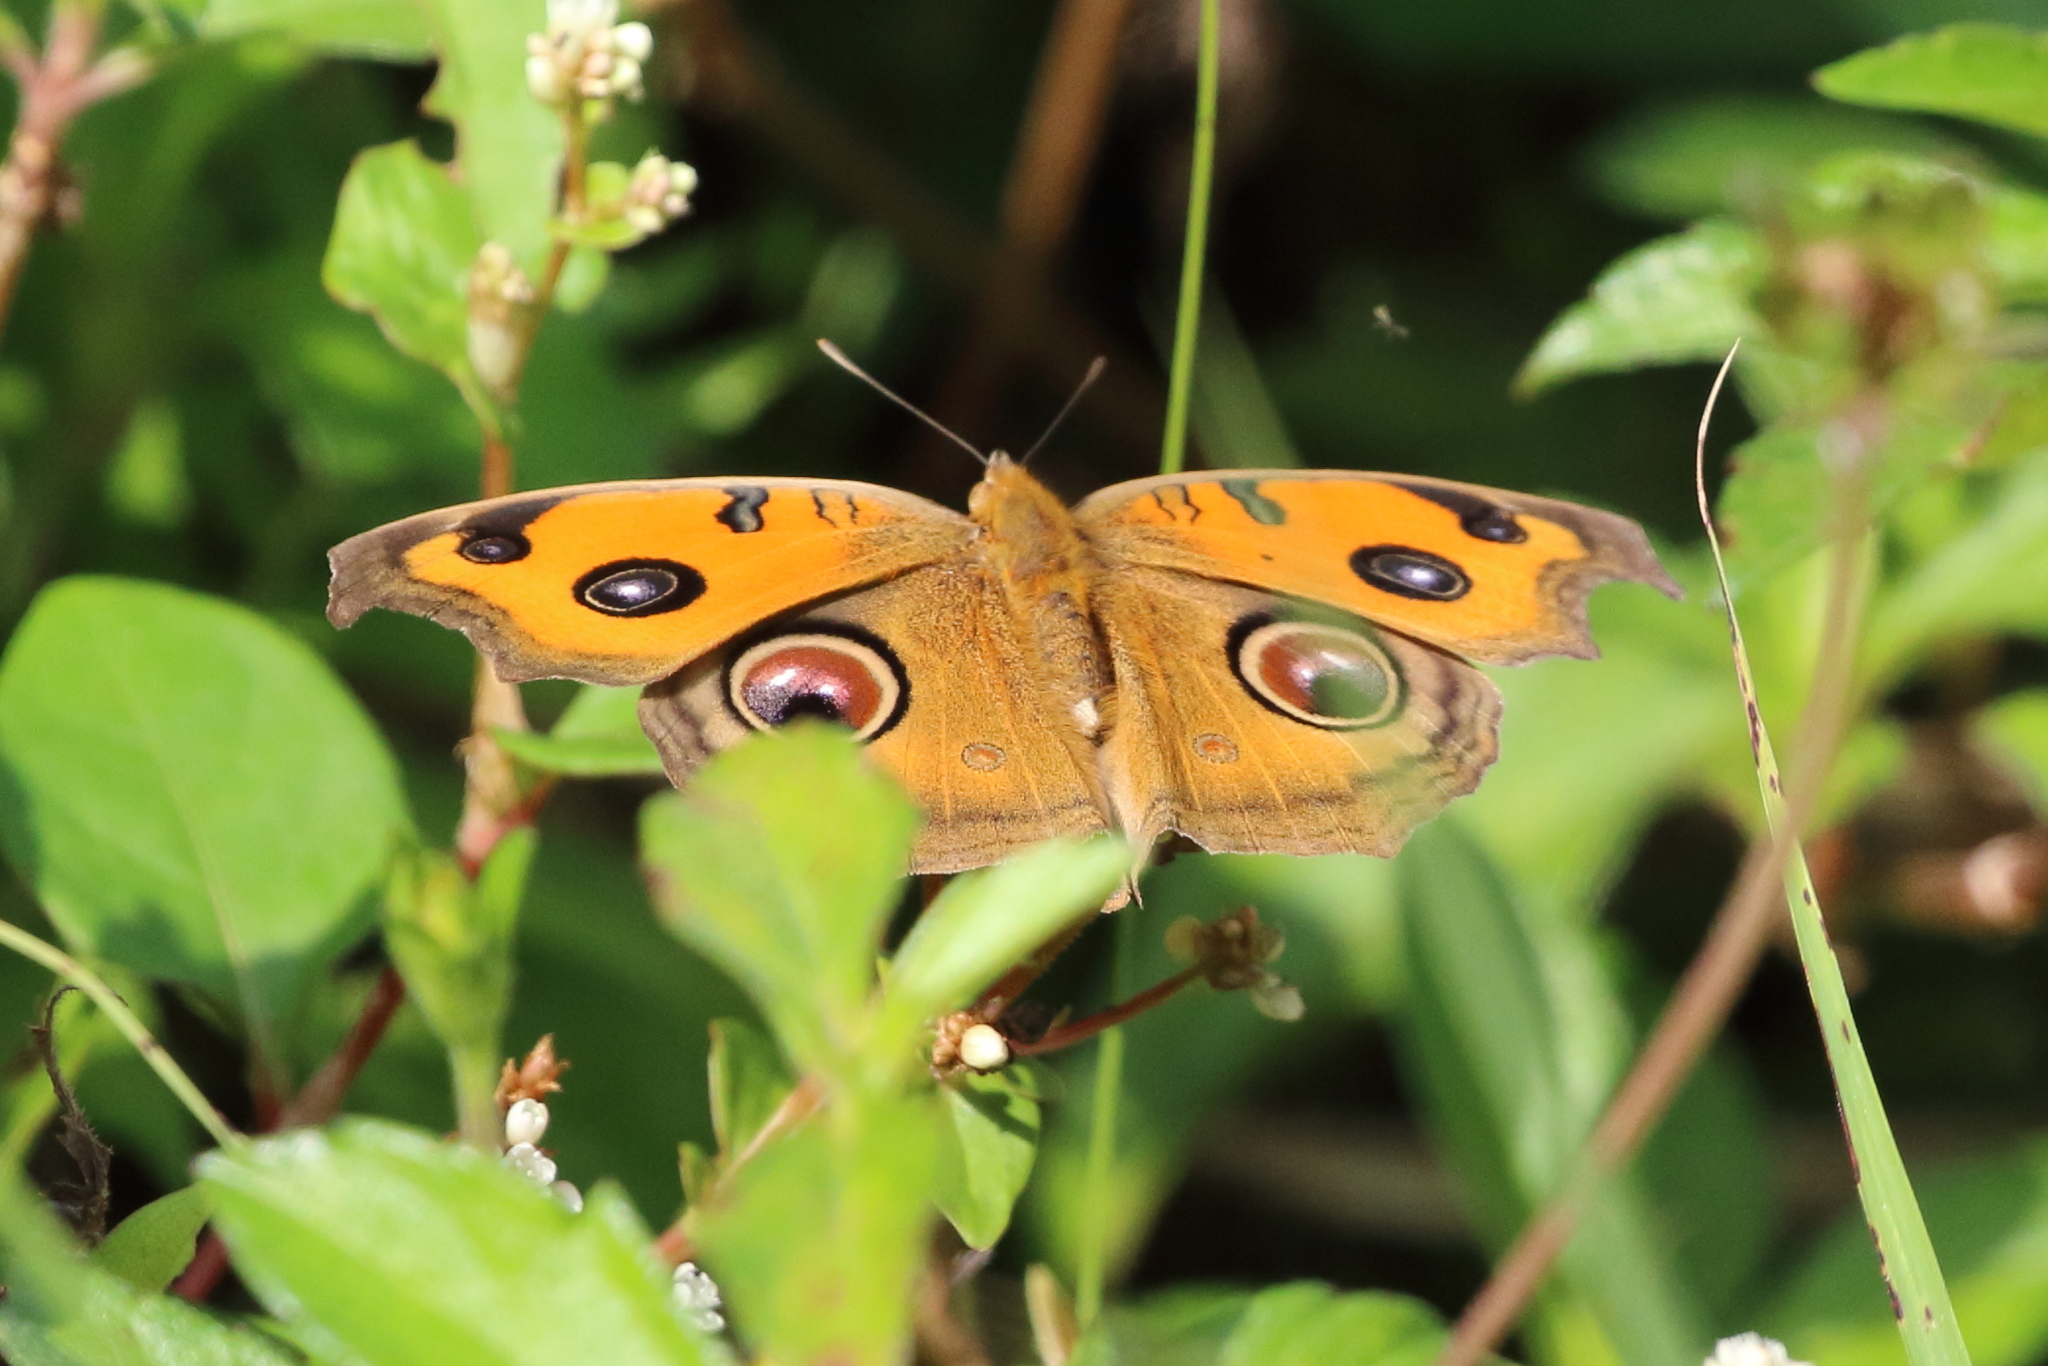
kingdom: Animalia
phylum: Arthropoda
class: Insecta
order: Lepidoptera
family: Nymphalidae
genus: Junonia
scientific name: Junonia almana
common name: Peacock pansy
